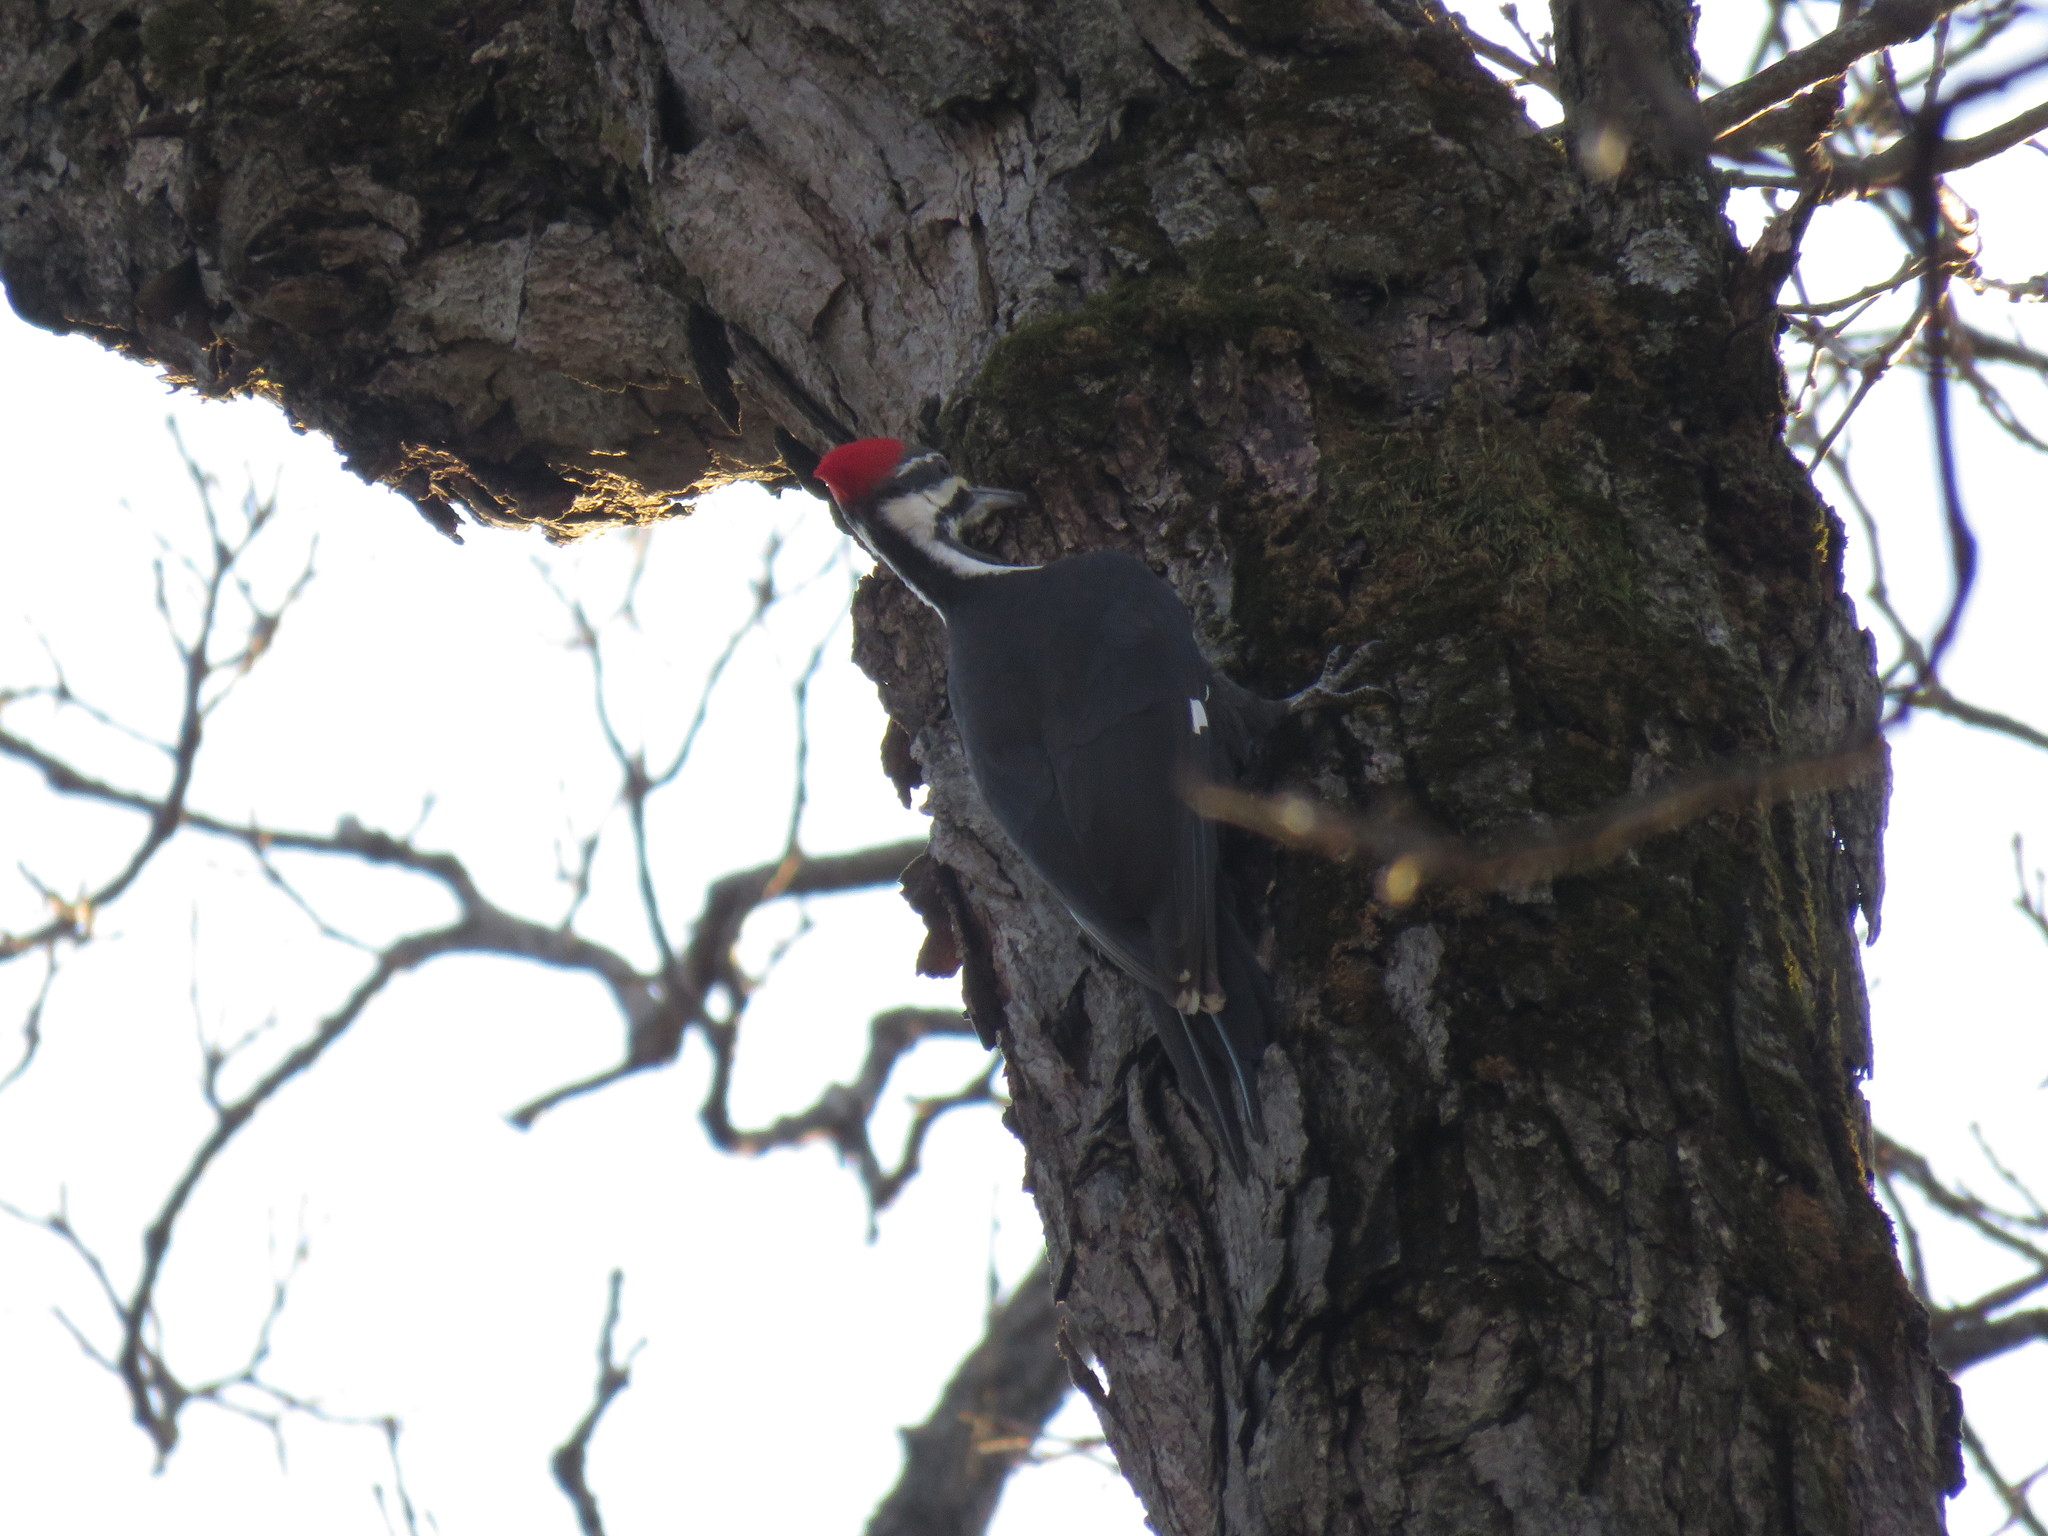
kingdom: Animalia
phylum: Chordata
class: Aves
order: Piciformes
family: Picidae
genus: Dryocopus
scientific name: Dryocopus pileatus
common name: Pileated woodpecker
